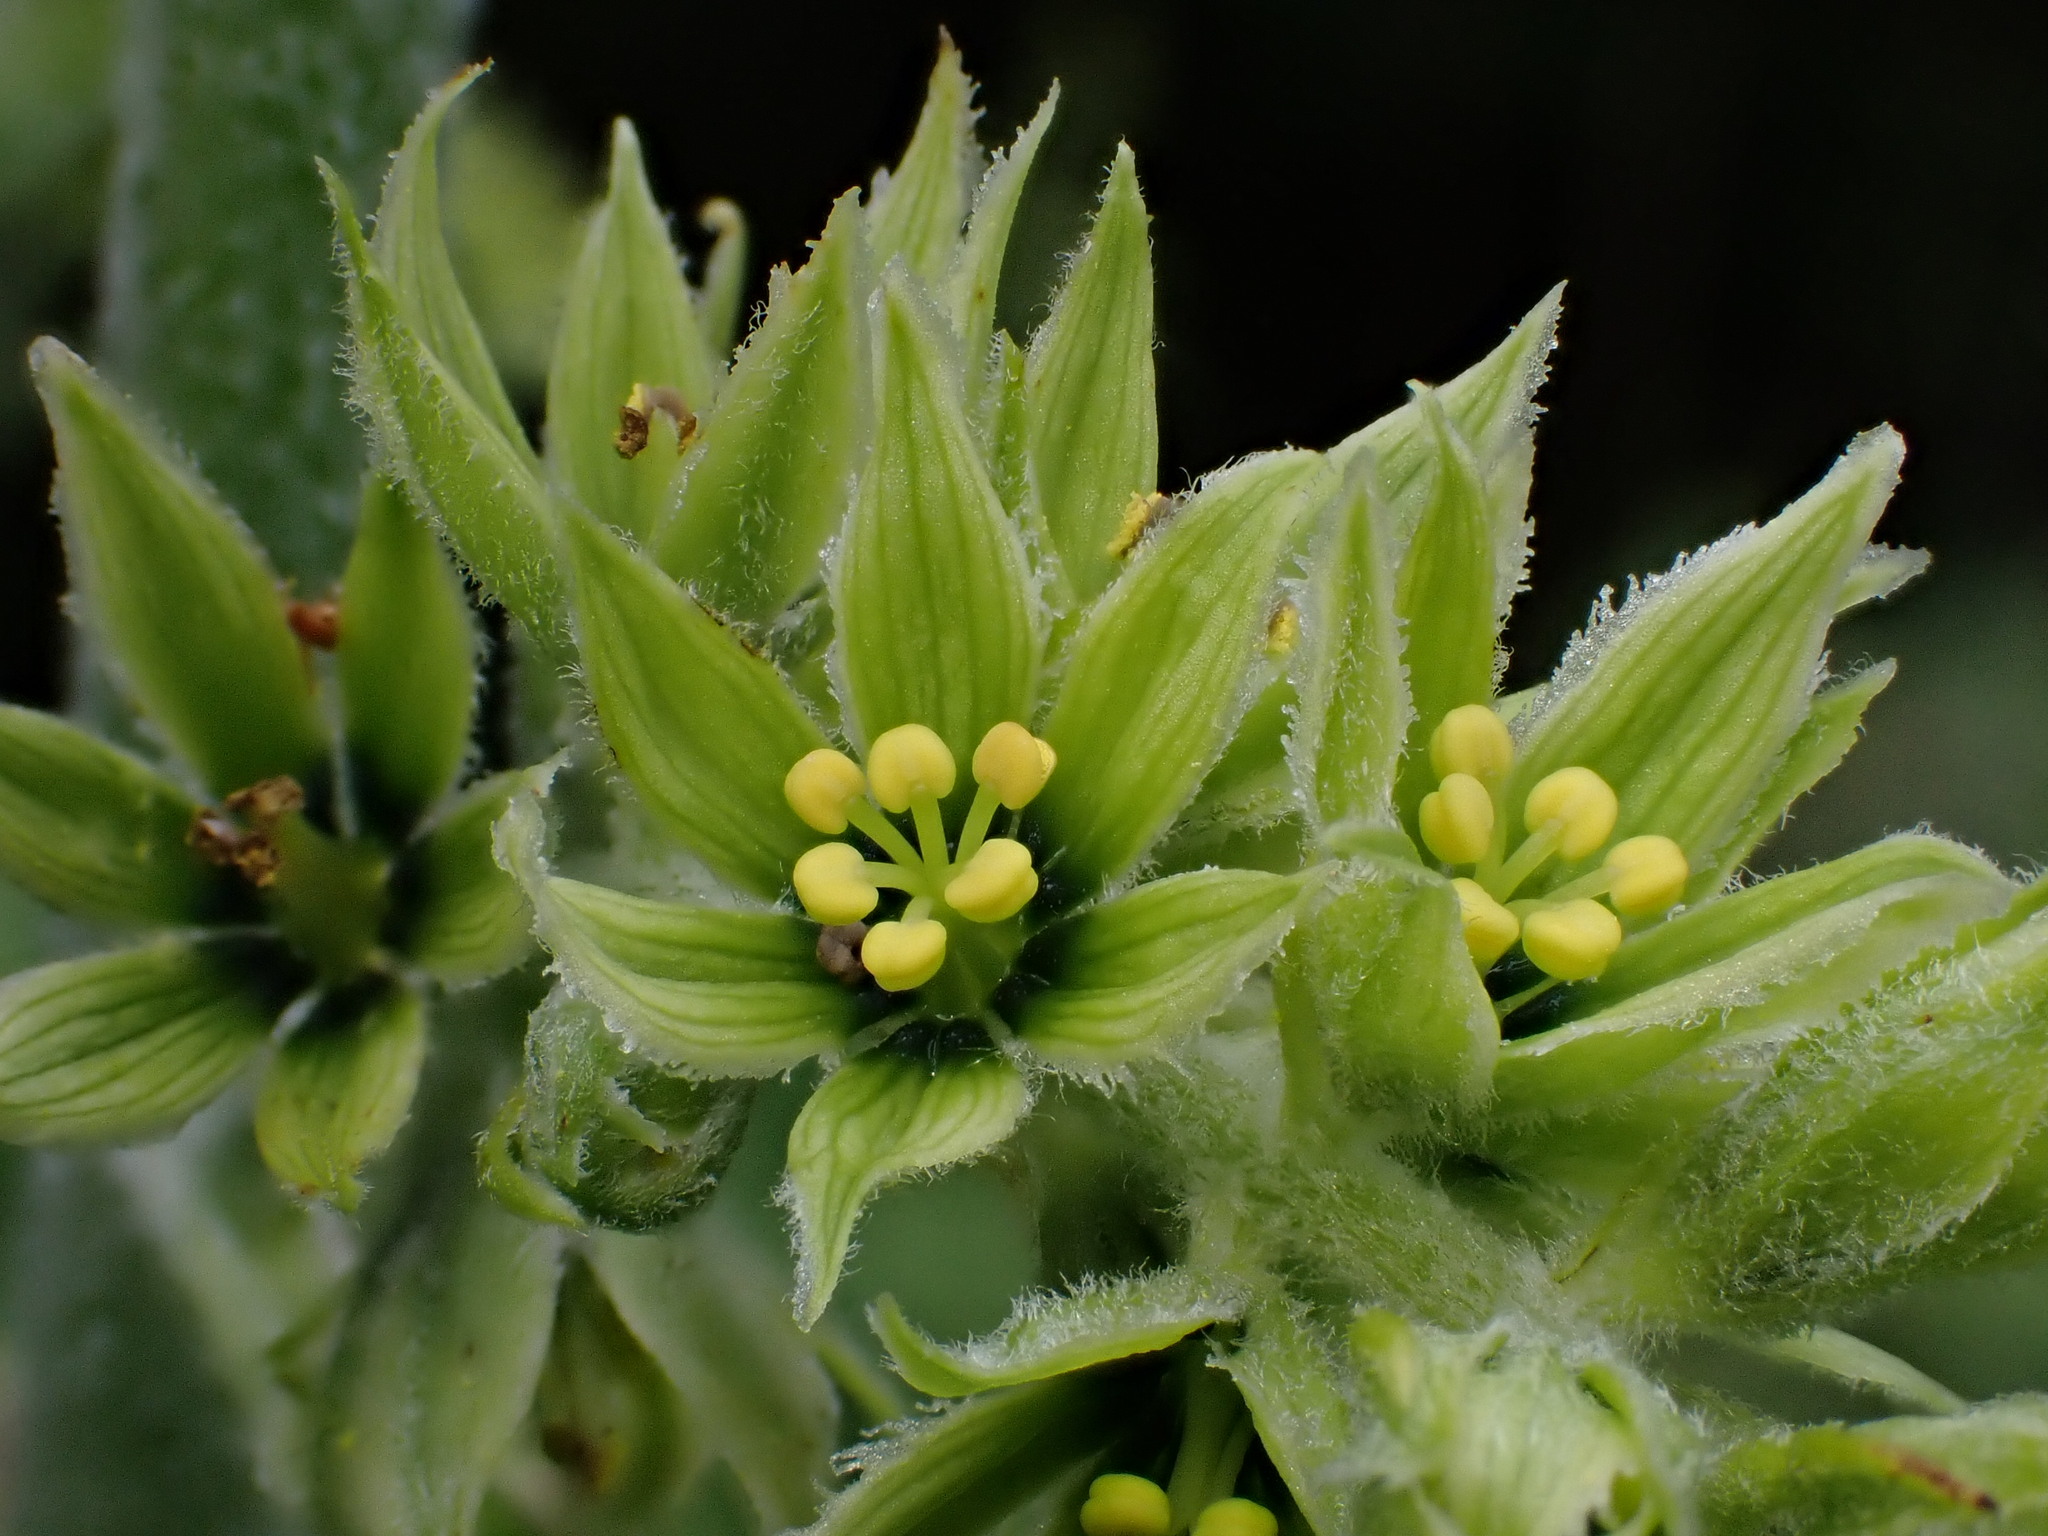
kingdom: Plantae
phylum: Tracheophyta
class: Liliopsida
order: Liliales
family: Melanthiaceae
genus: Veratrum
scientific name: Veratrum viride
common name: American false hellebore
